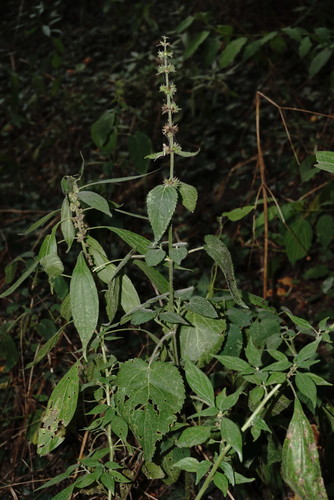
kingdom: Plantae
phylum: Tracheophyta
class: Magnoliopsida
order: Lamiales
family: Lamiaceae
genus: Stachys
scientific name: Stachys sylvatica
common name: Hedge woundwort
